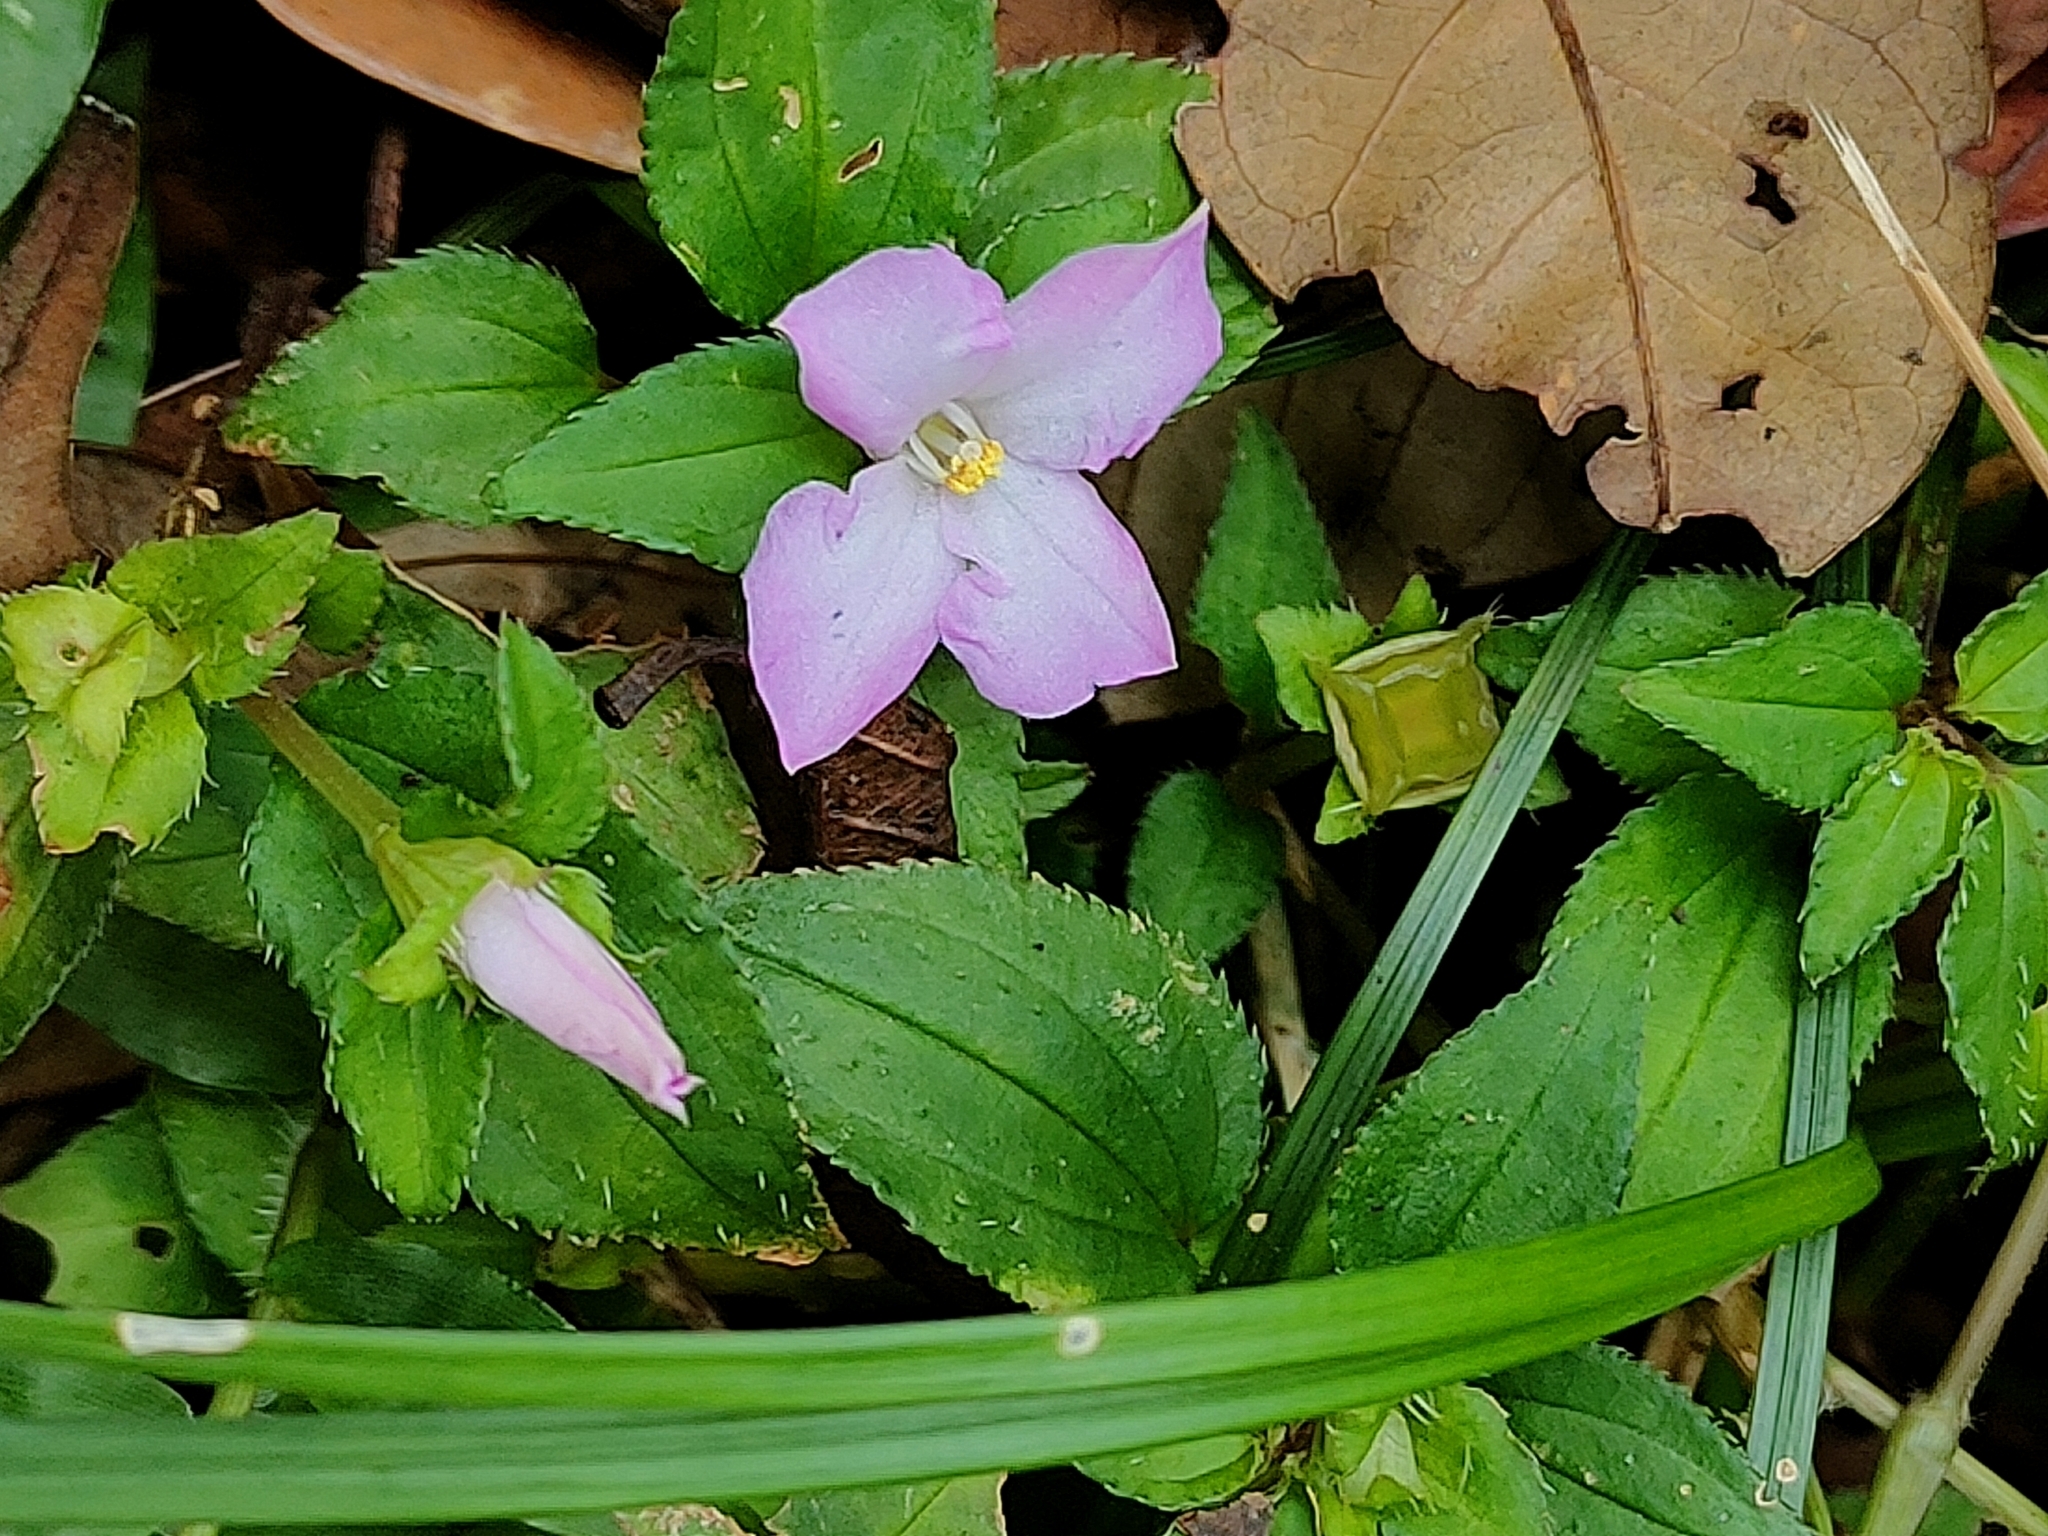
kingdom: Plantae
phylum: Tracheophyta
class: Magnoliopsida
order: Myrtales
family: Melastomataceae
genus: Sarcopyramis
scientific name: Sarcopyramis napalensis
